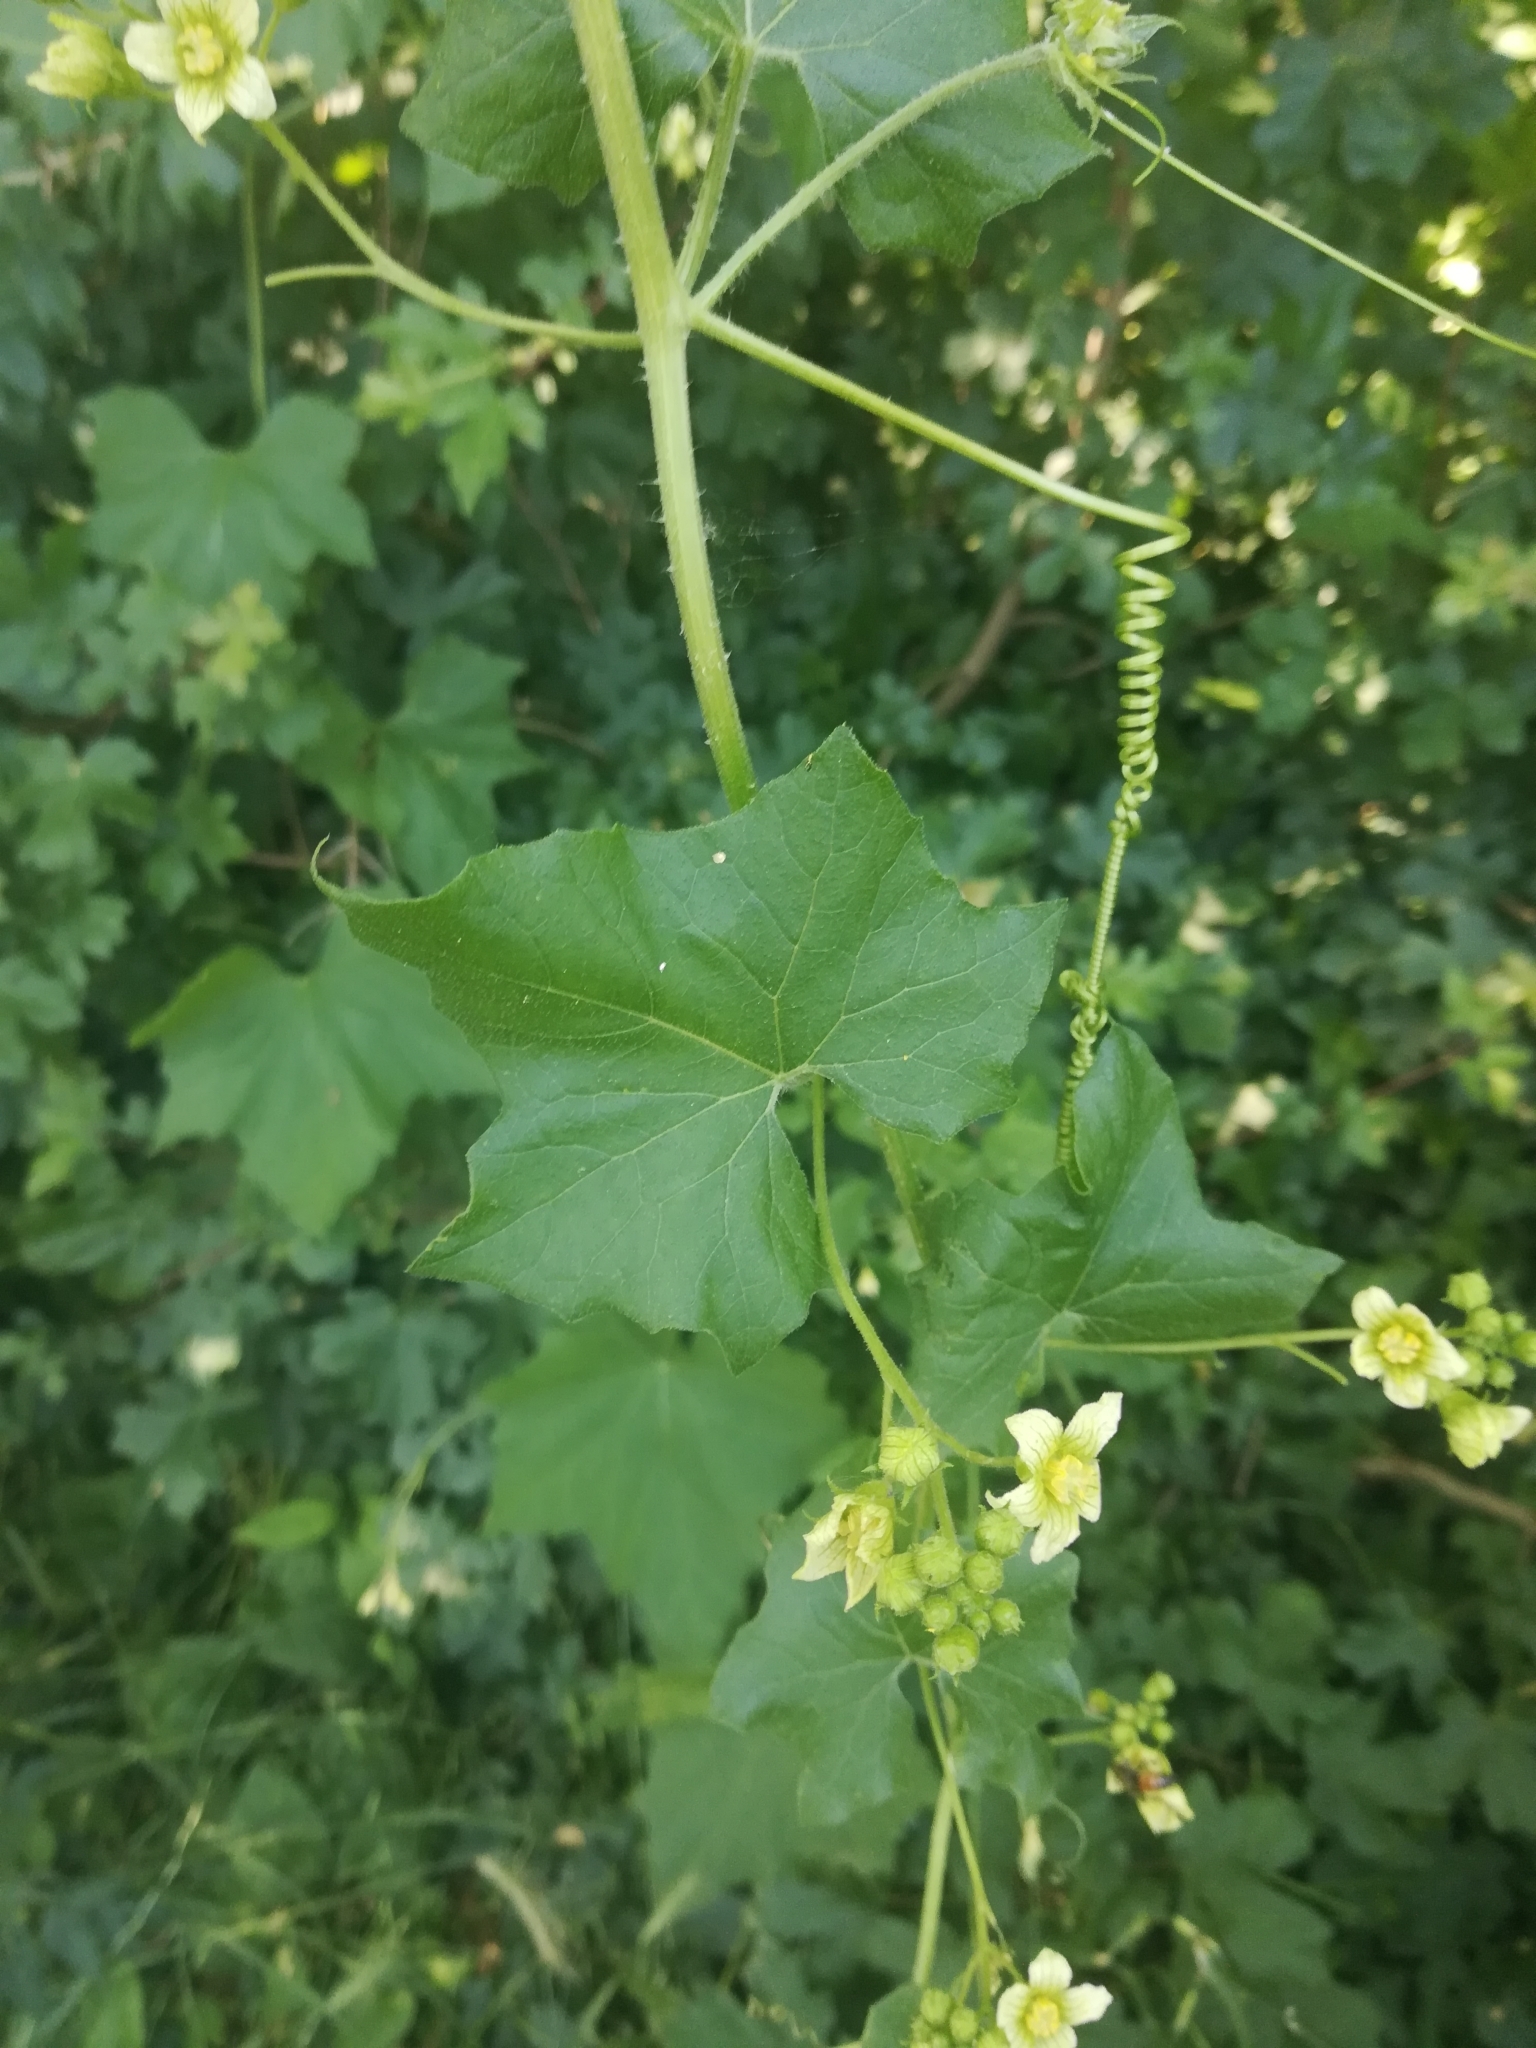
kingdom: Plantae
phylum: Tracheophyta
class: Magnoliopsida
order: Cucurbitales
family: Cucurbitaceae
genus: Bryonia
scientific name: Bryonia dioica
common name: White bryony
